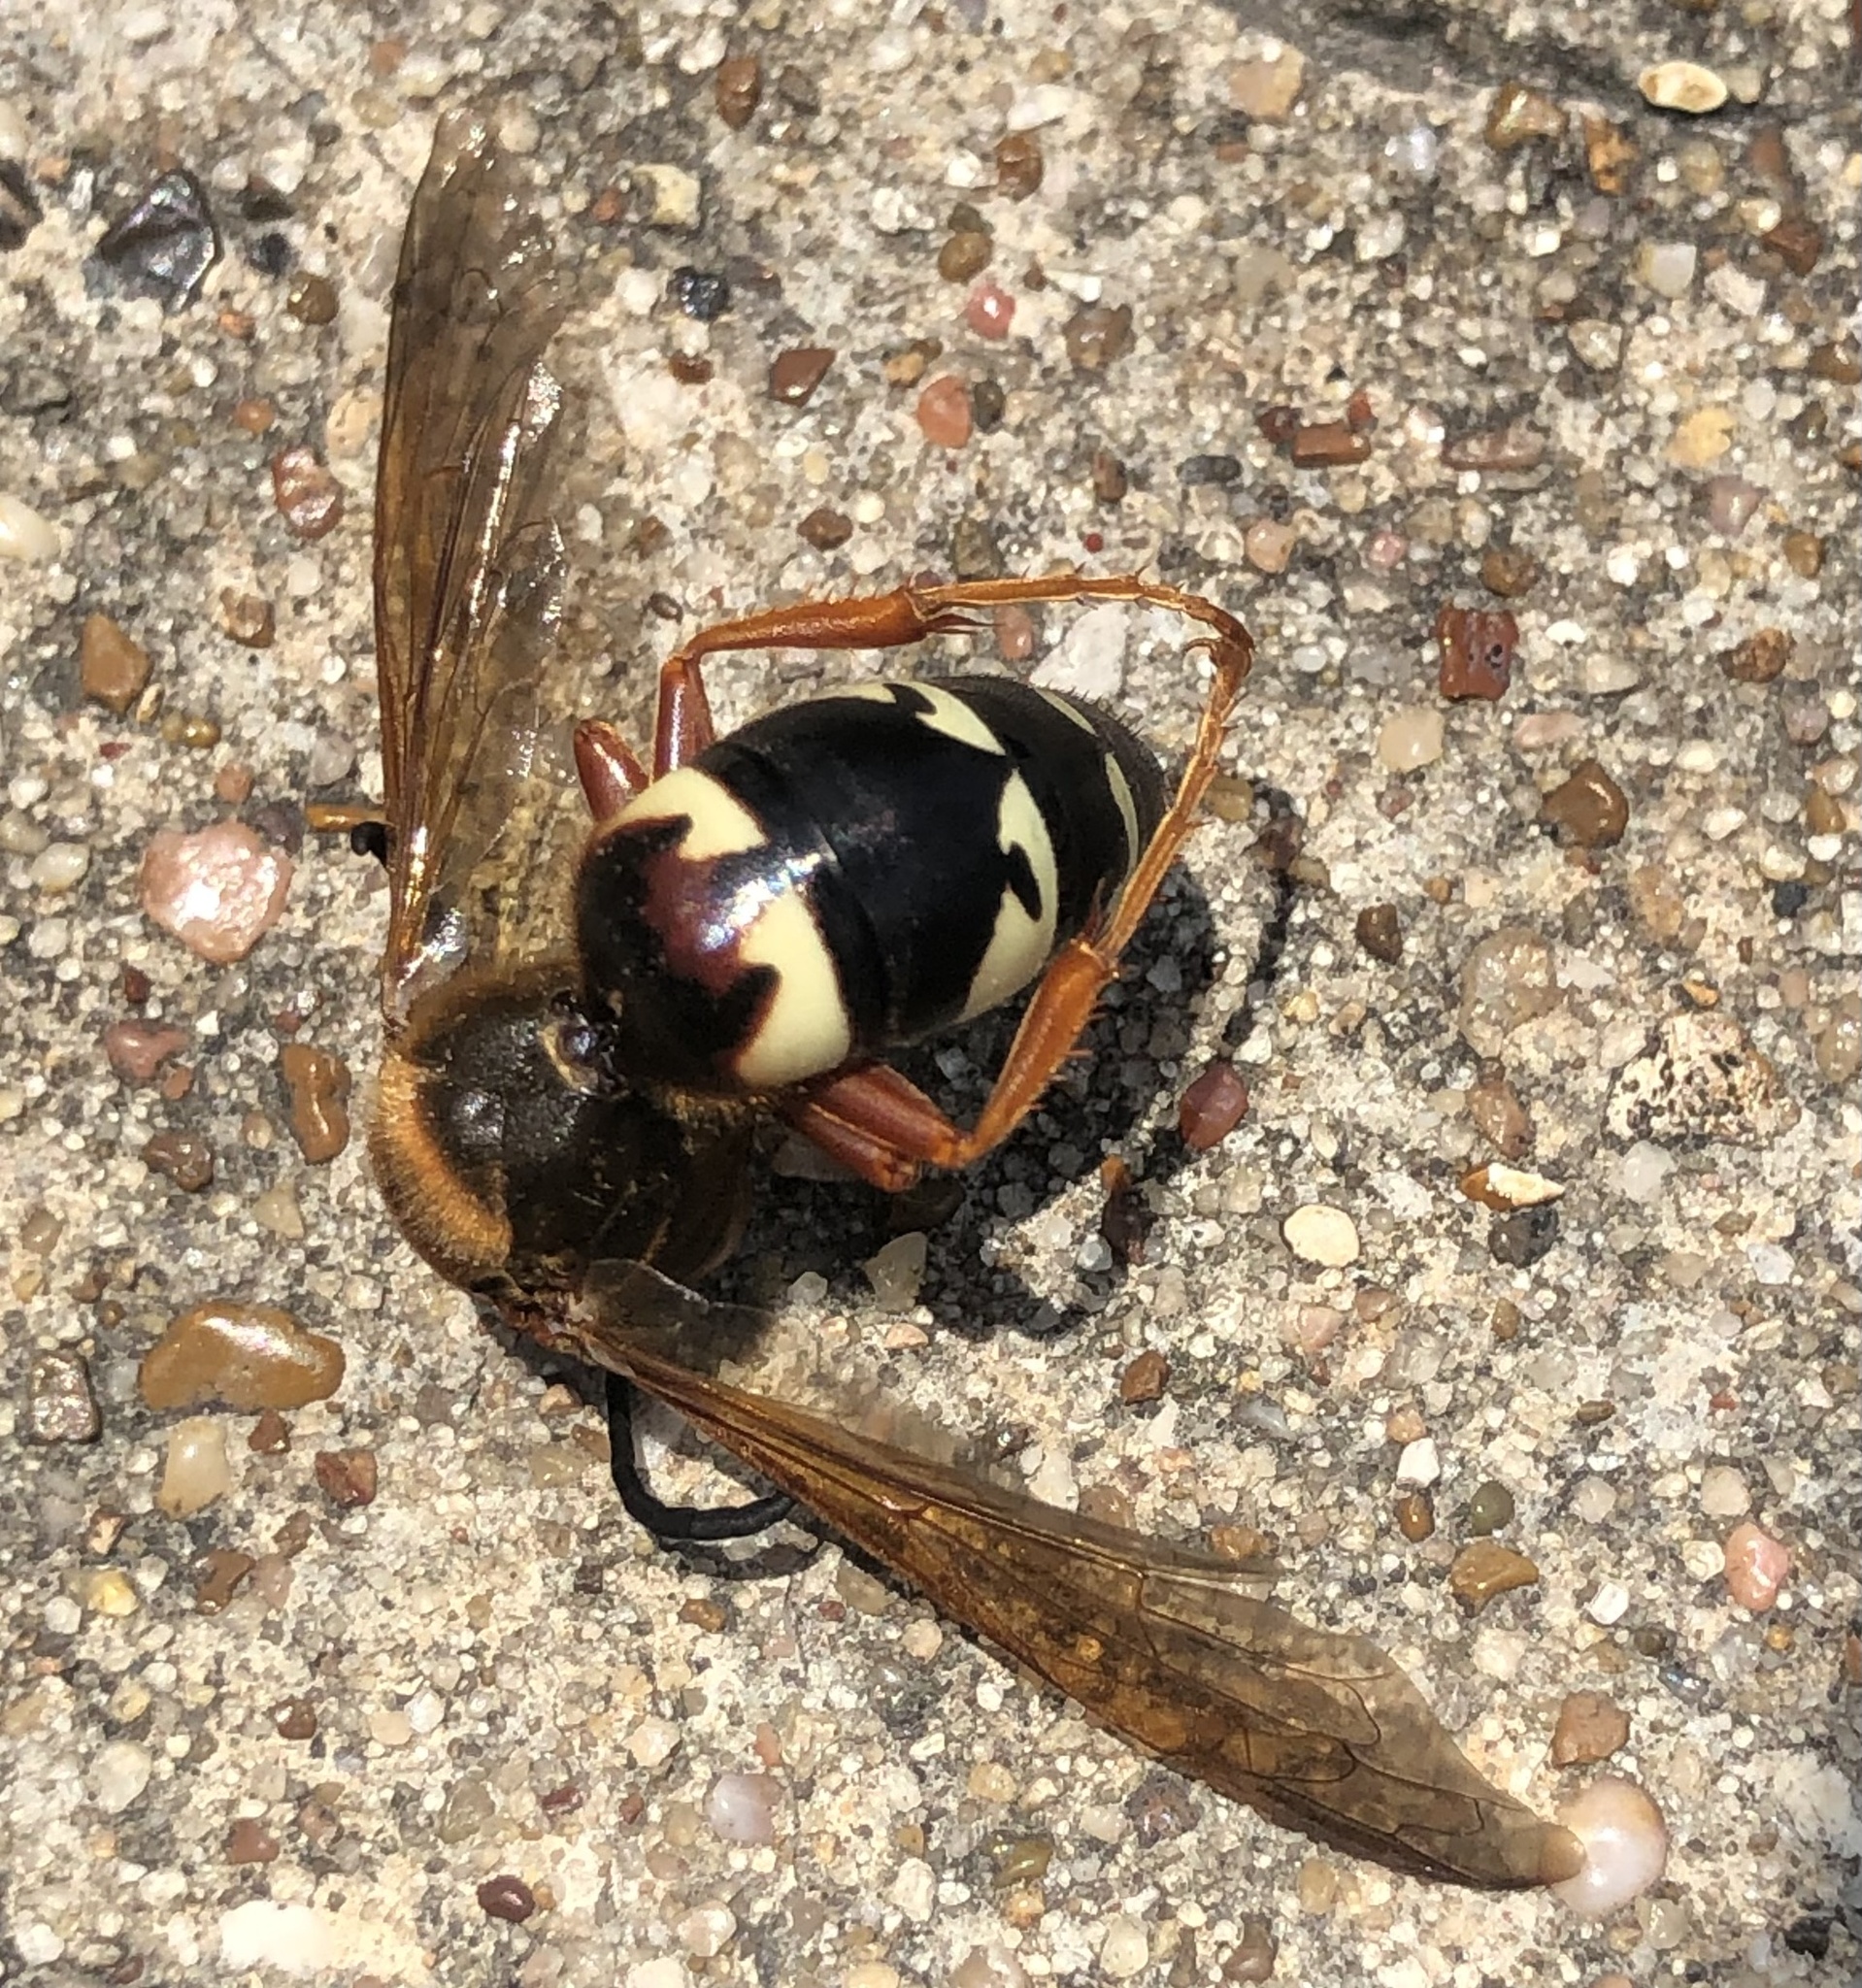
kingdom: Animalia
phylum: Arthropoda
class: Insecta
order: Hymenoptera
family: Crabronidae
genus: Sphecius
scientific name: Sphecius speciosus
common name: Cicada killer
